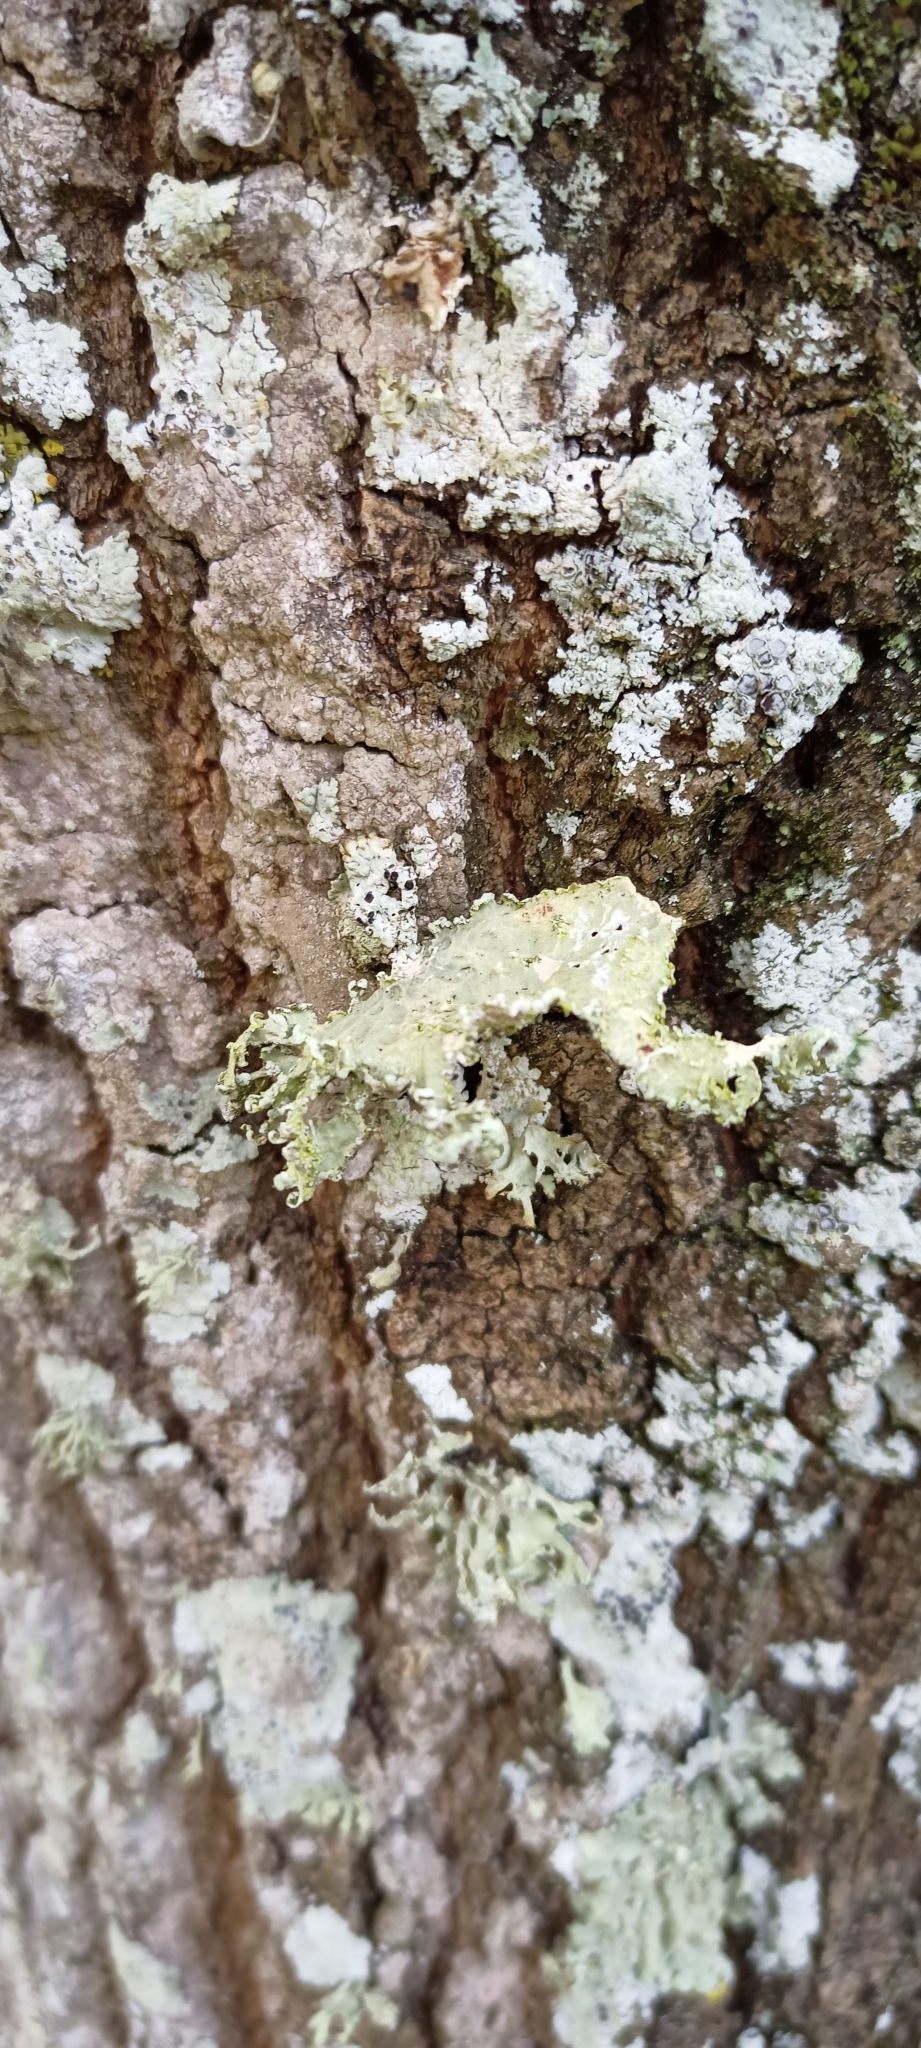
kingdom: Fungi
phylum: Ascomycota
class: Lecanoromycetes
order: Lecanorales
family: Ramalinaceae
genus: Ramalina
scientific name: Ramalina lacera
